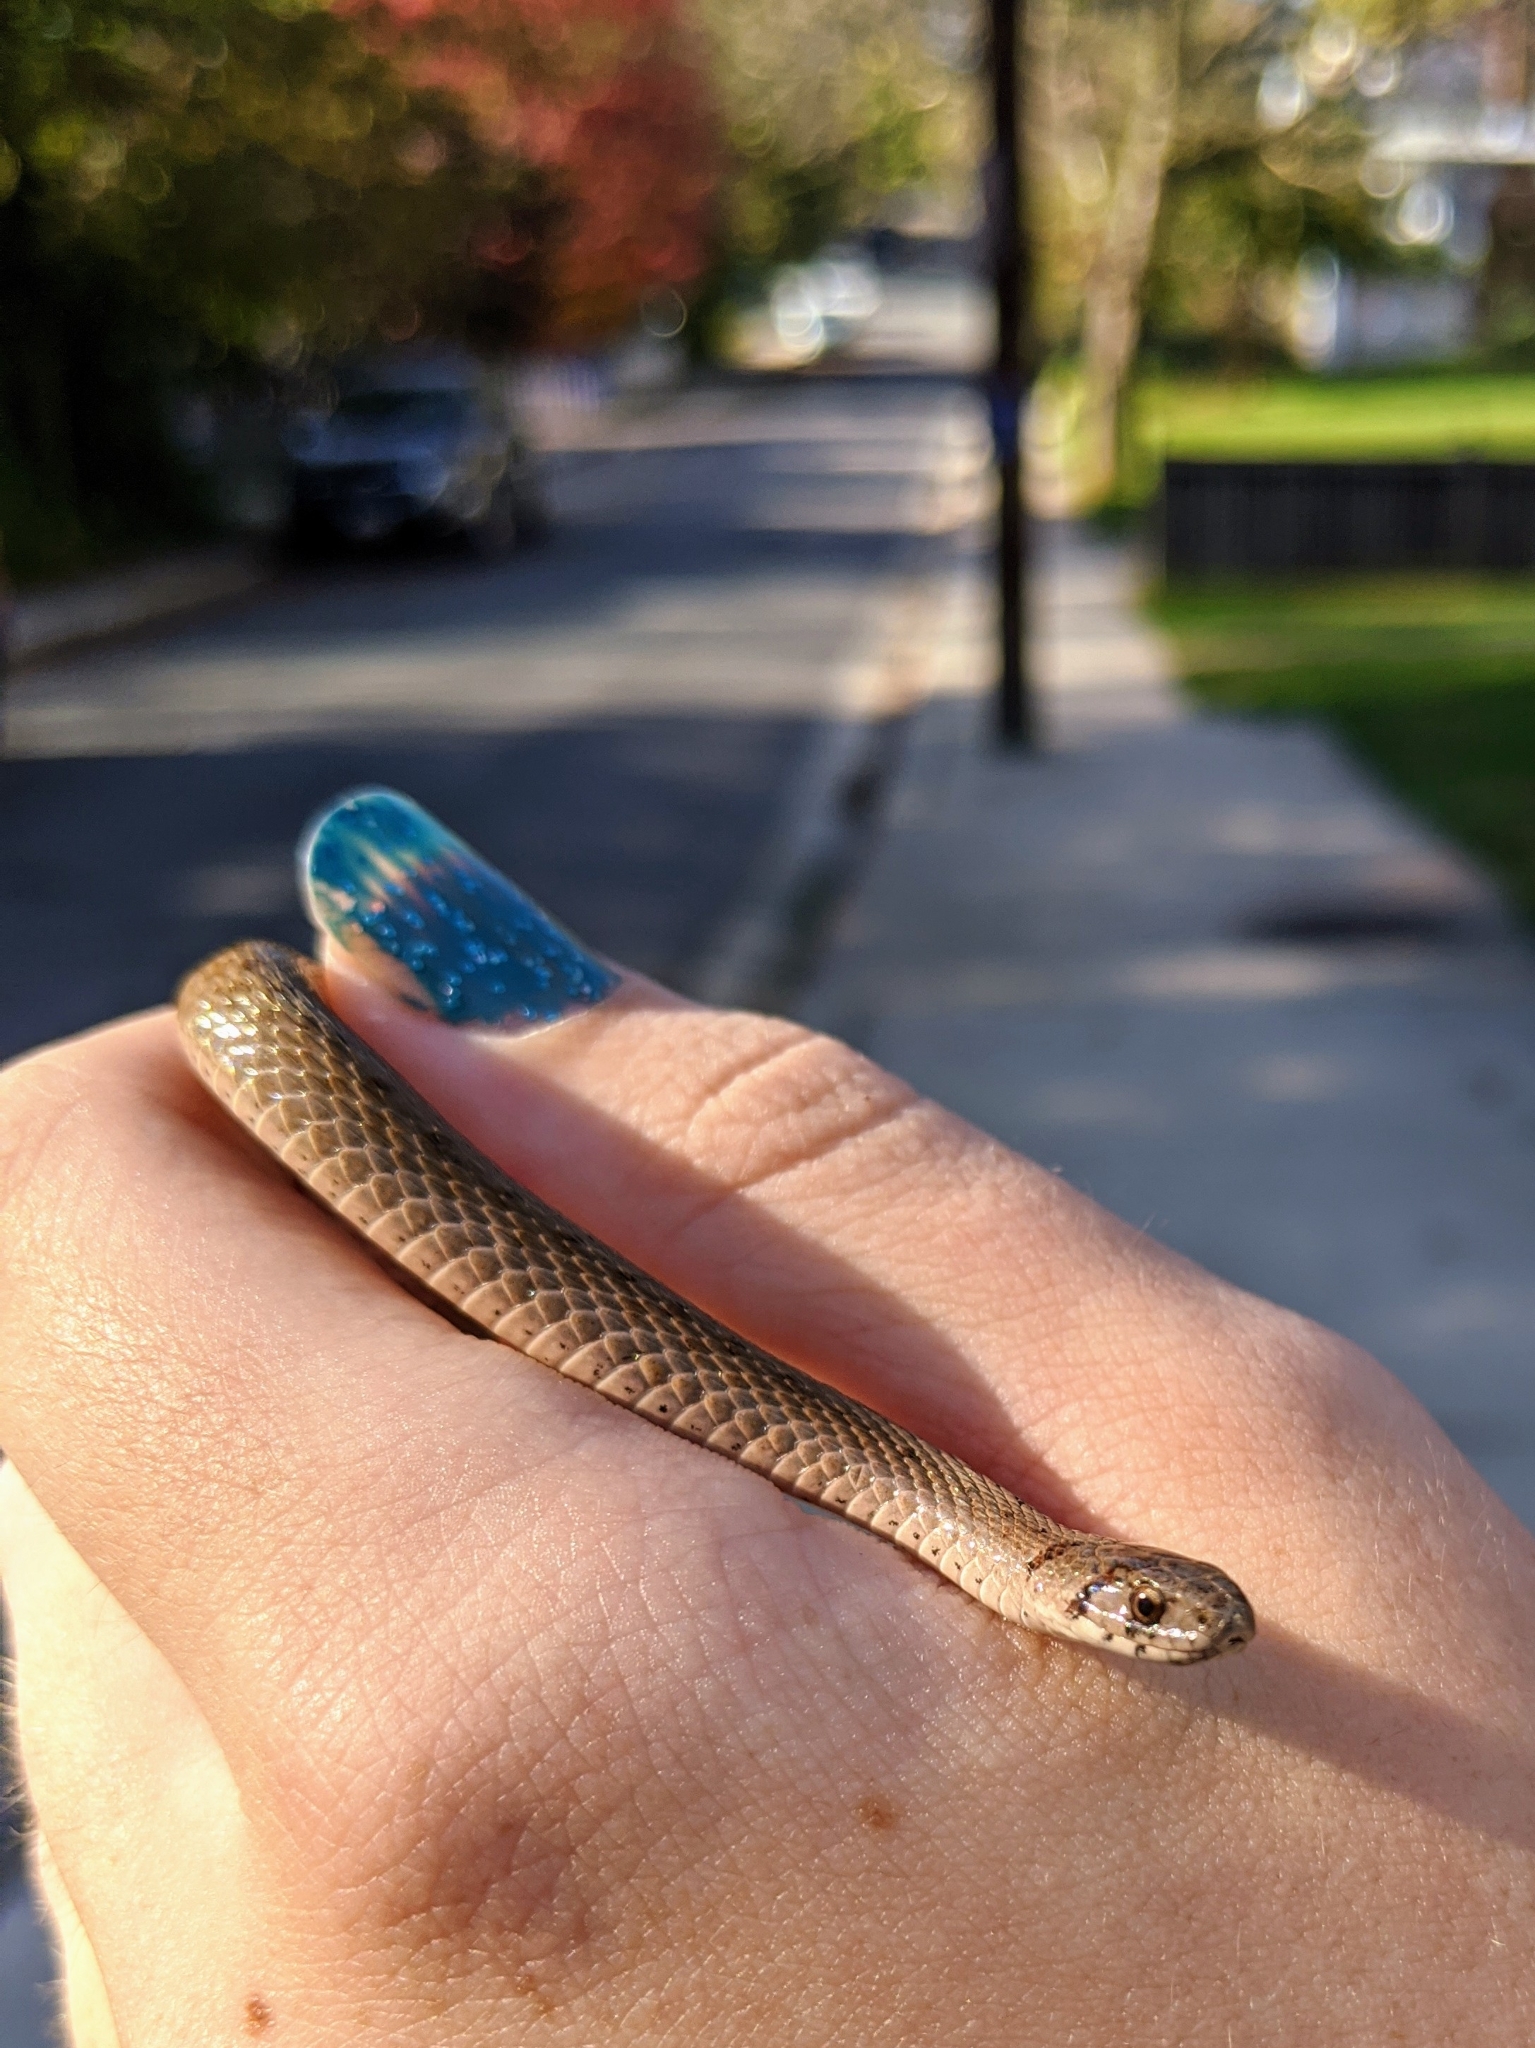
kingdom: Animalia
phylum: Chordata
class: Squamata
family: Colubridae
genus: Storeria
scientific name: Storeria dekayi
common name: (dekay’s) brown snake
